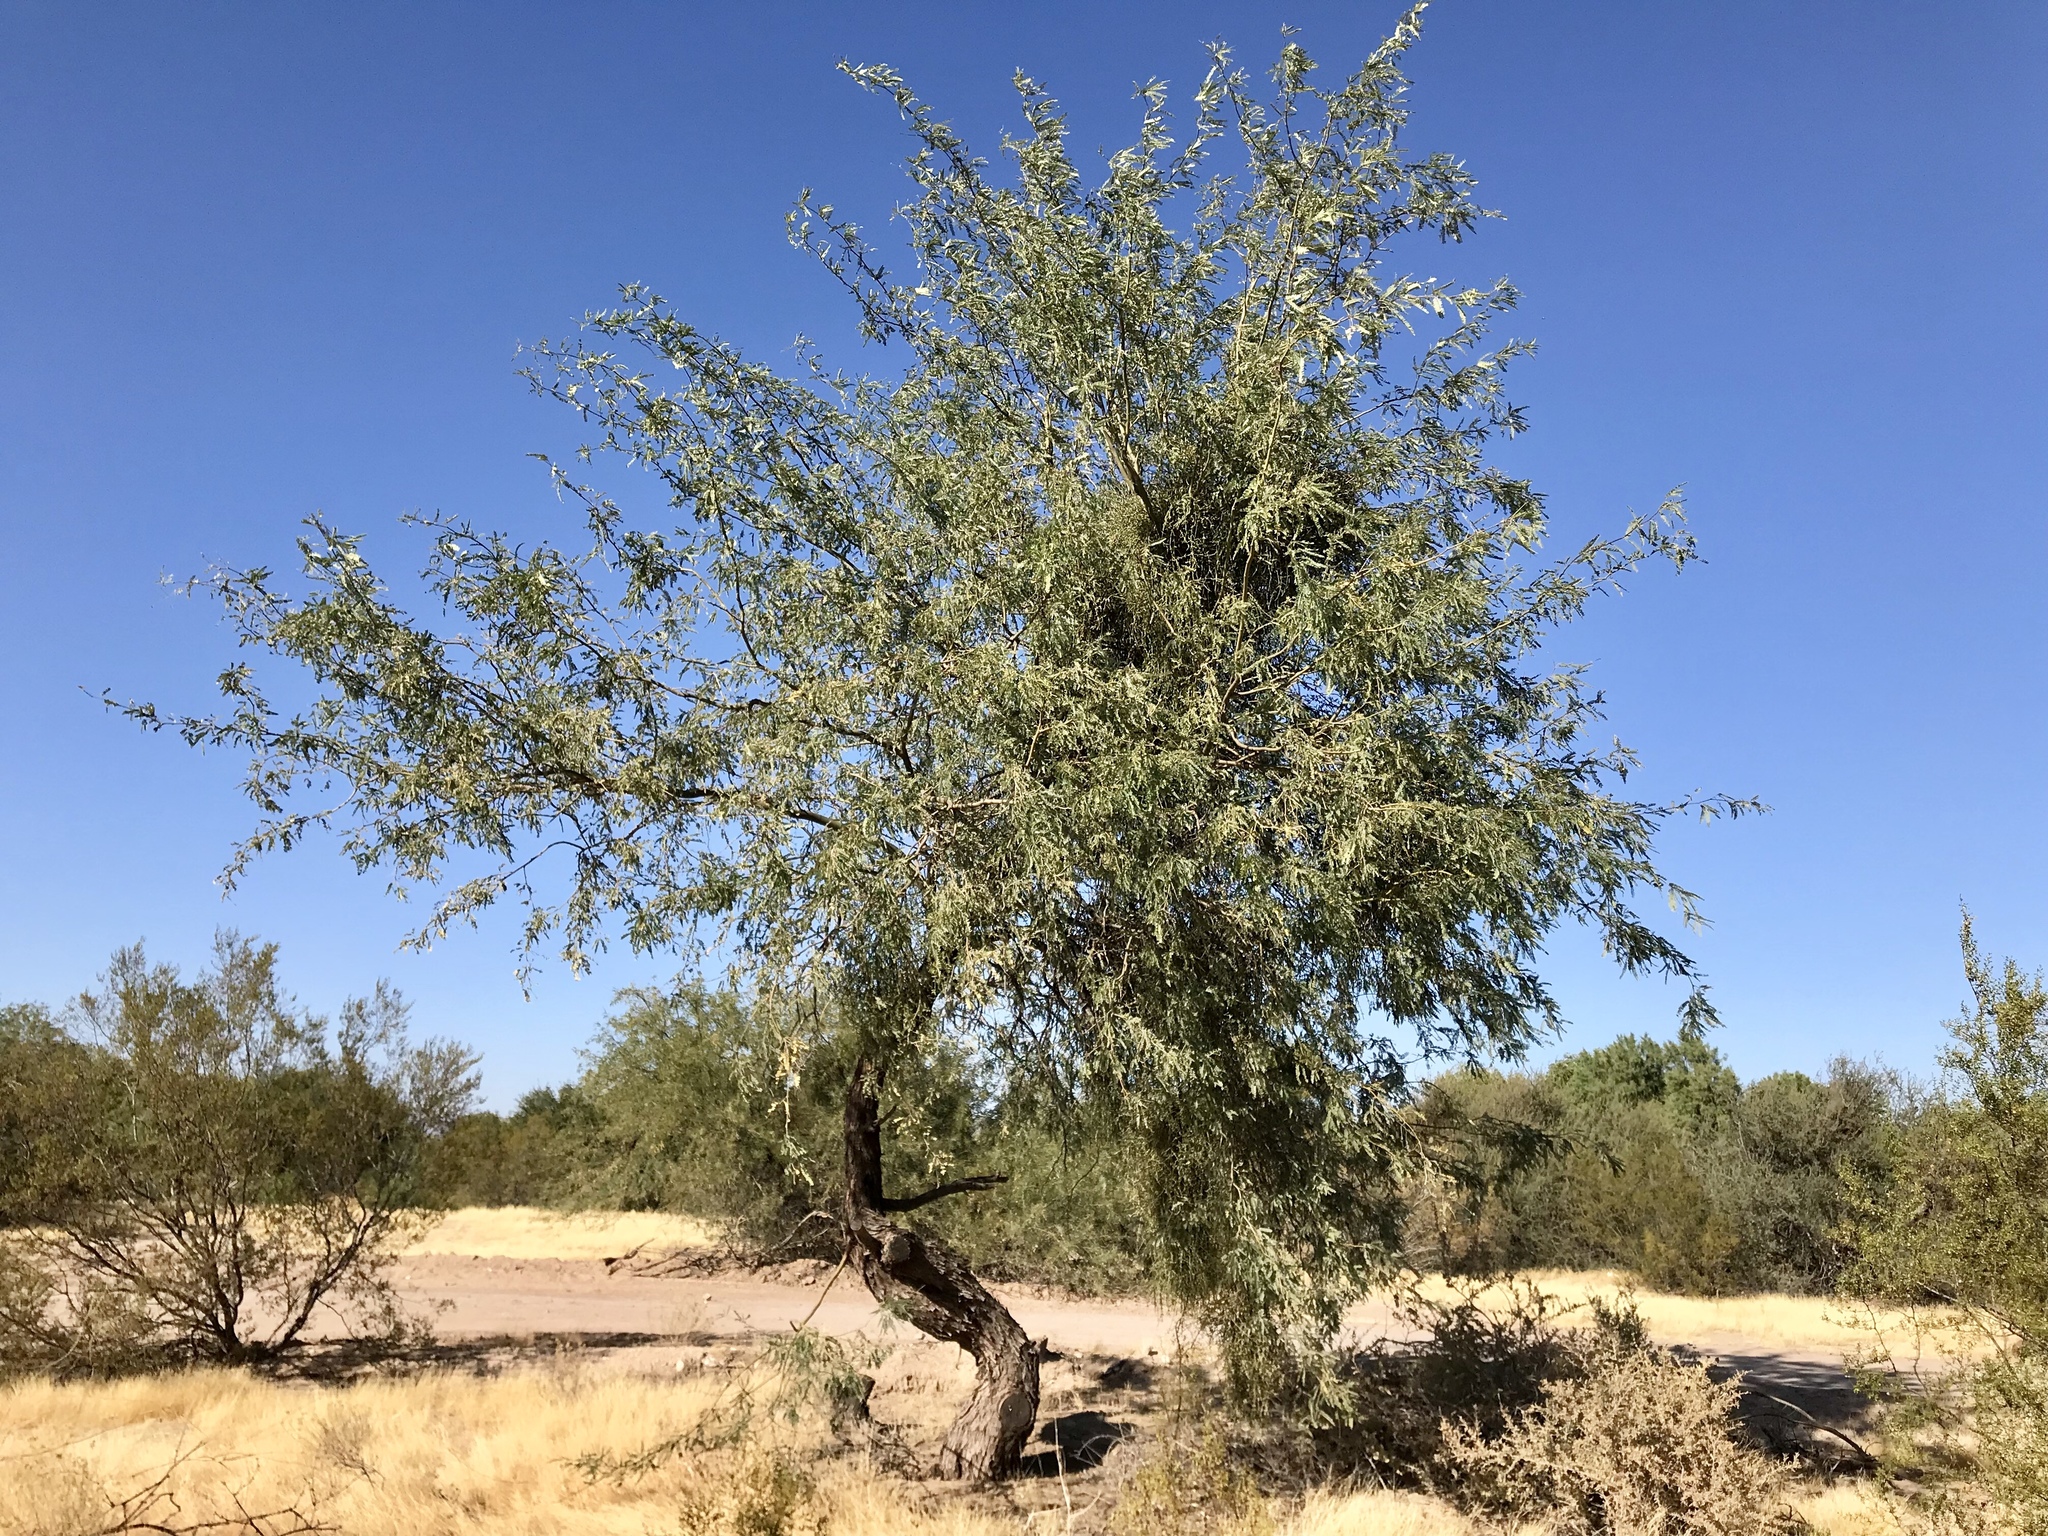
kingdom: Plantae
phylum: Tracheophyta
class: Magnoliopsida
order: Fabales
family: Fabaceae
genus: Prosopis
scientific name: Prosopis velutina
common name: Velvet mesquite
